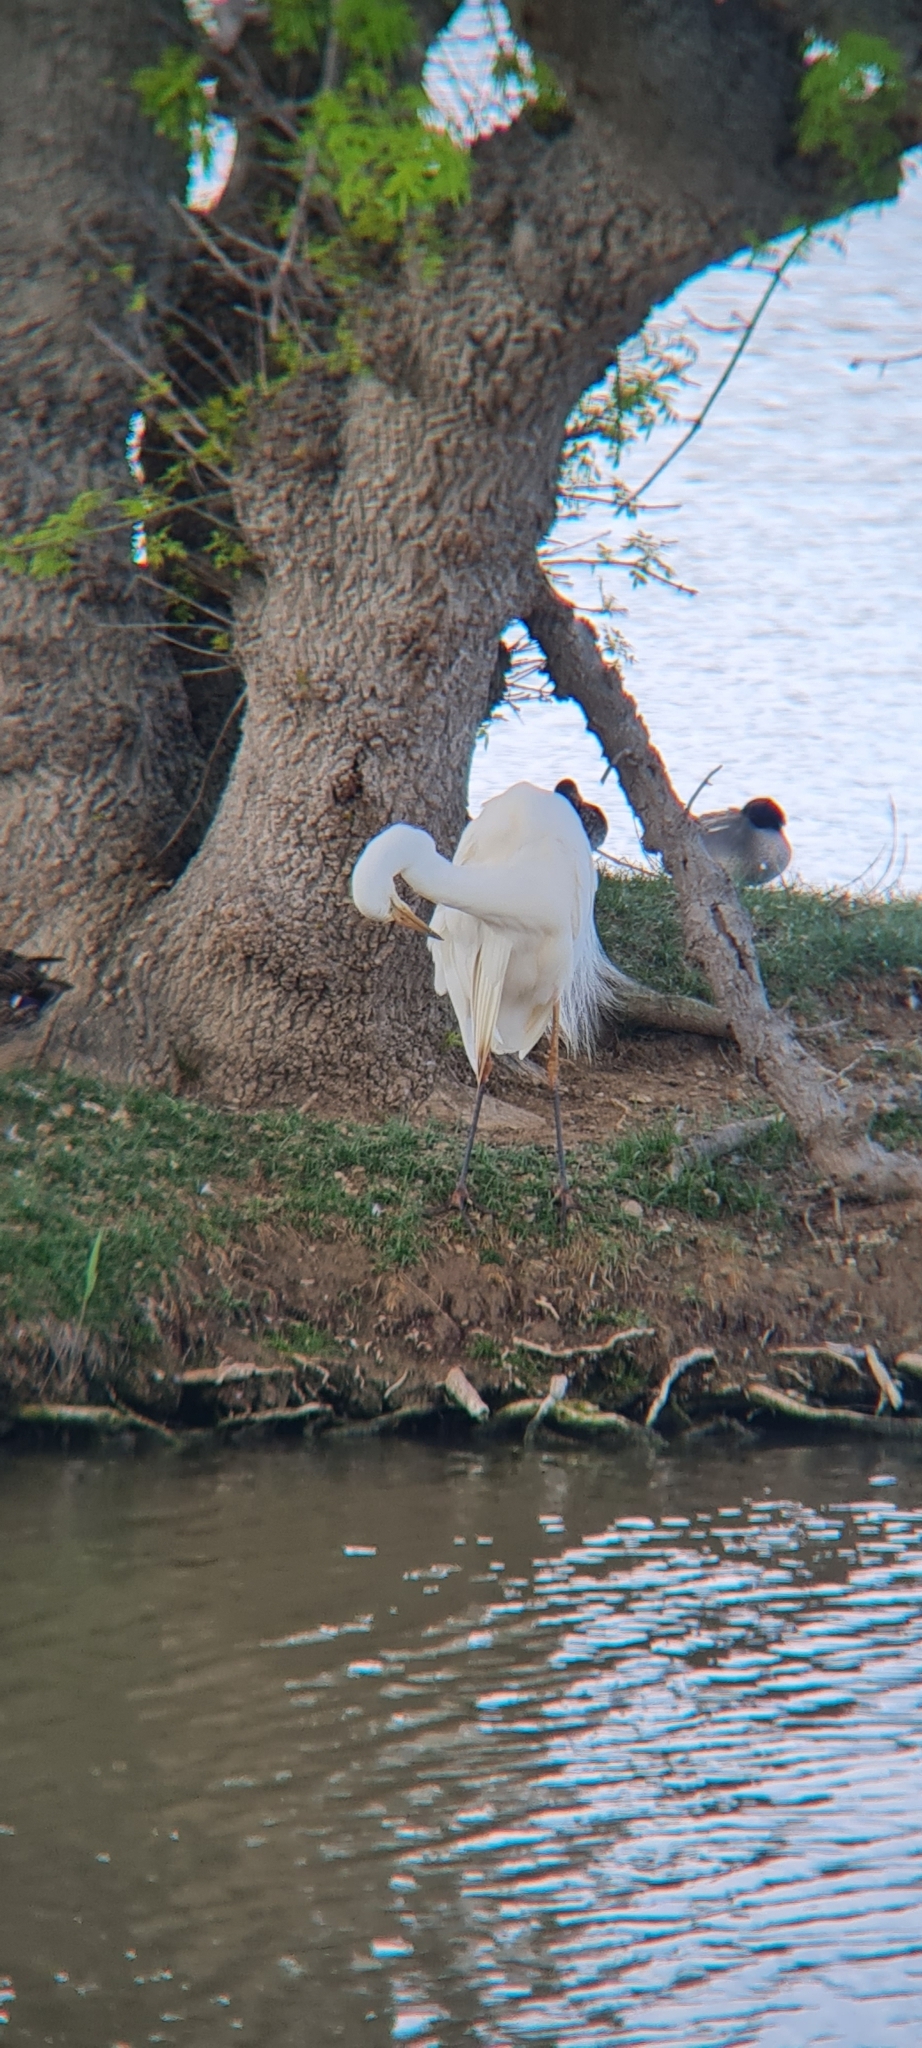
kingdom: Animalia
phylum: Chordata
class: Aves
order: Pelecaniformes
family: Ardeidae
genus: Ardea
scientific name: Ardea alba
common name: Great egret
